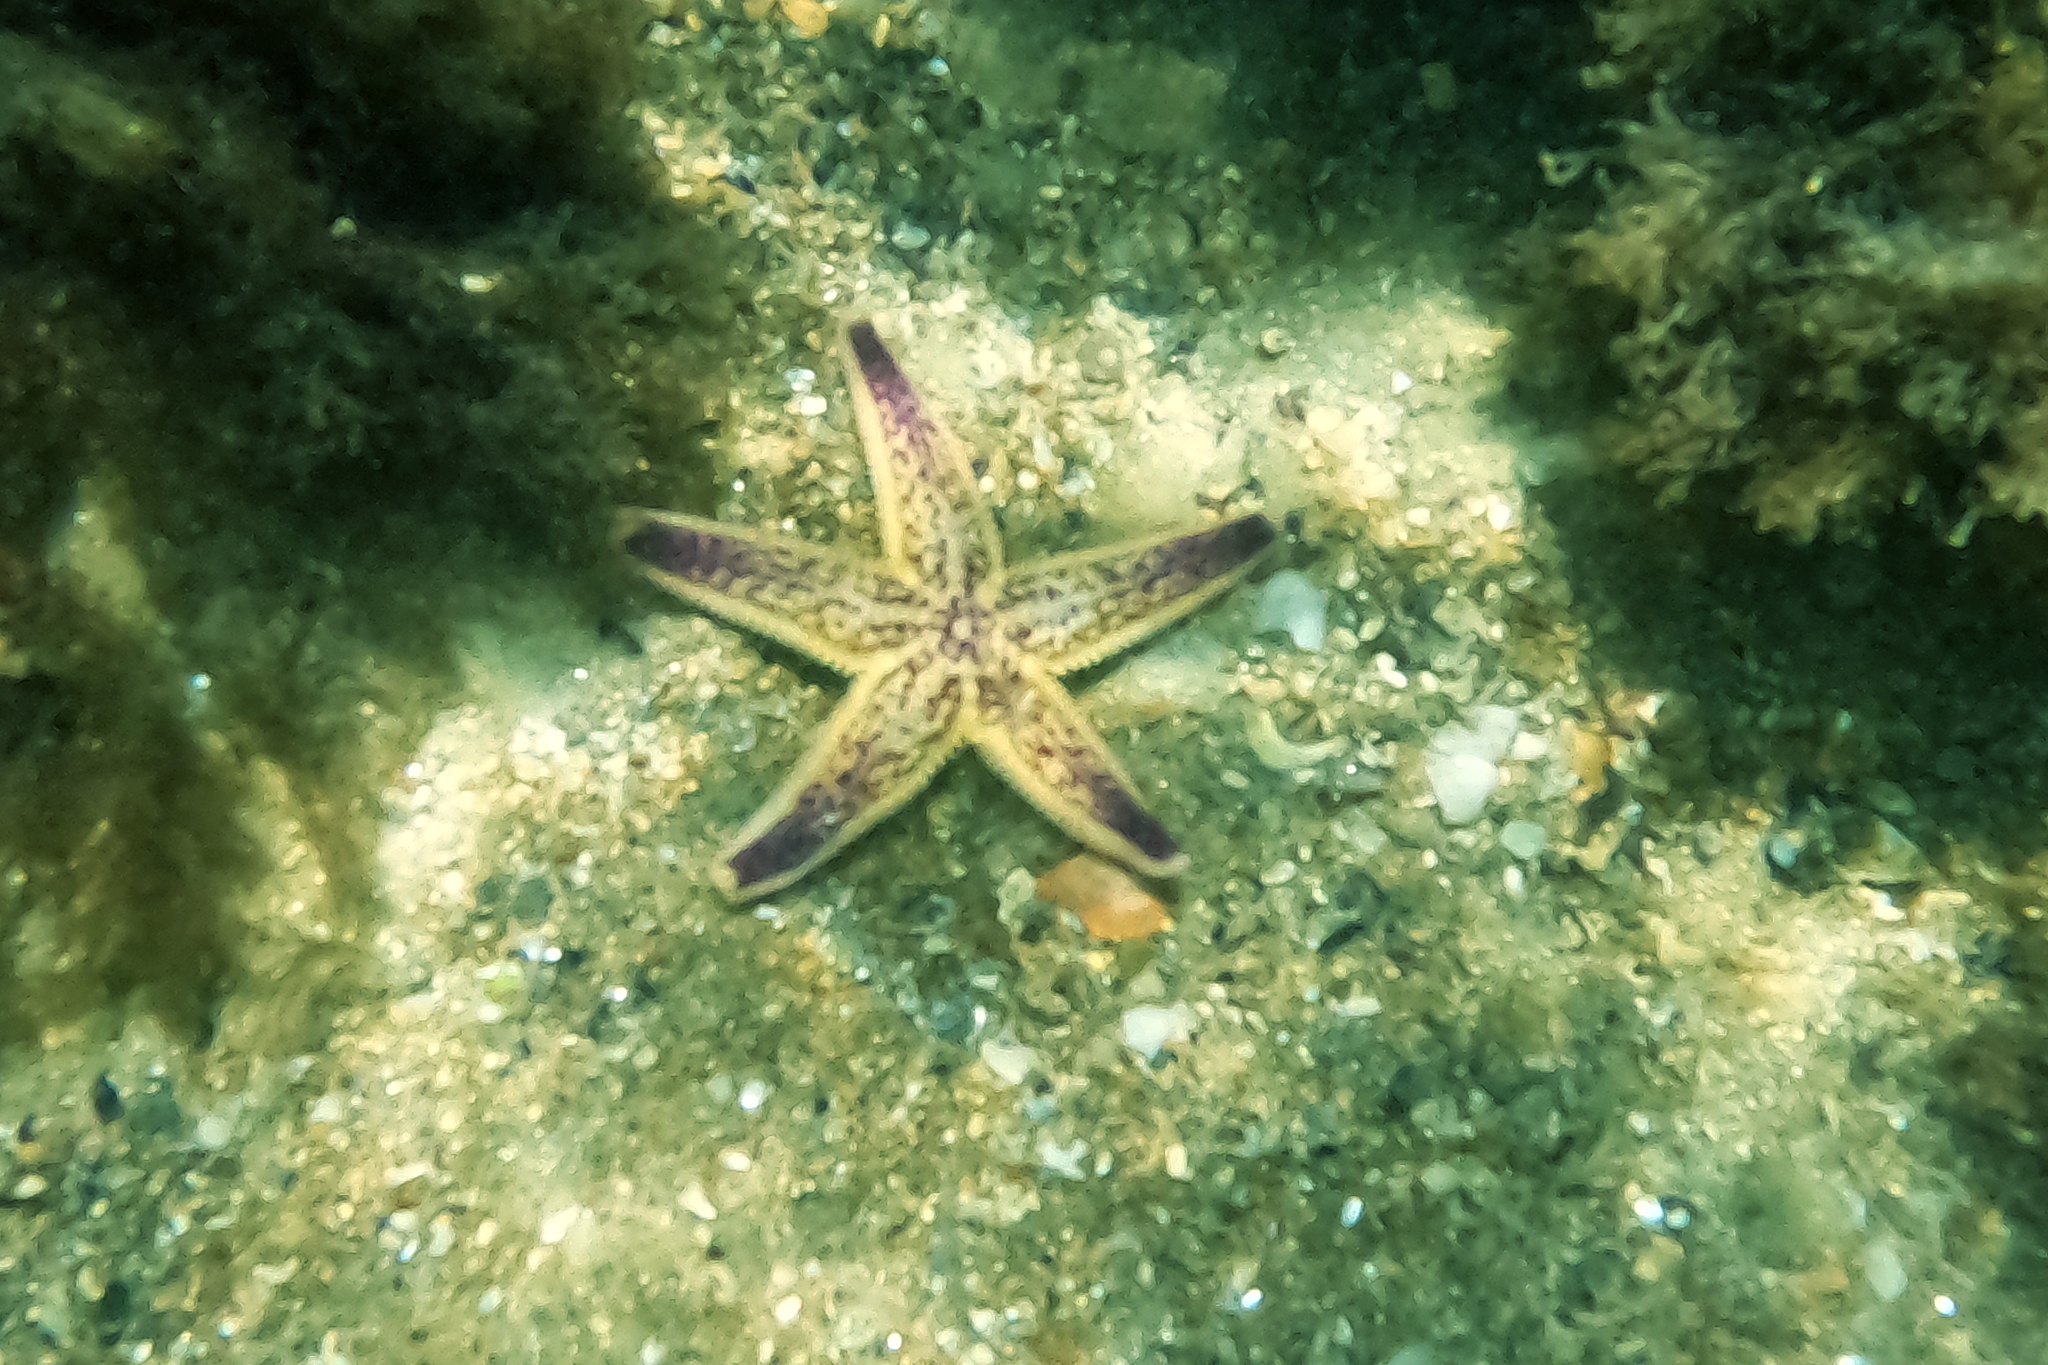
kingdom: Animalia
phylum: Echinodermata
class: Asteroidea
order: Forcipulatida
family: Asteriidae
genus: Asterias
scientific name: Asterias amurensis
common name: Flat-bottomed star
